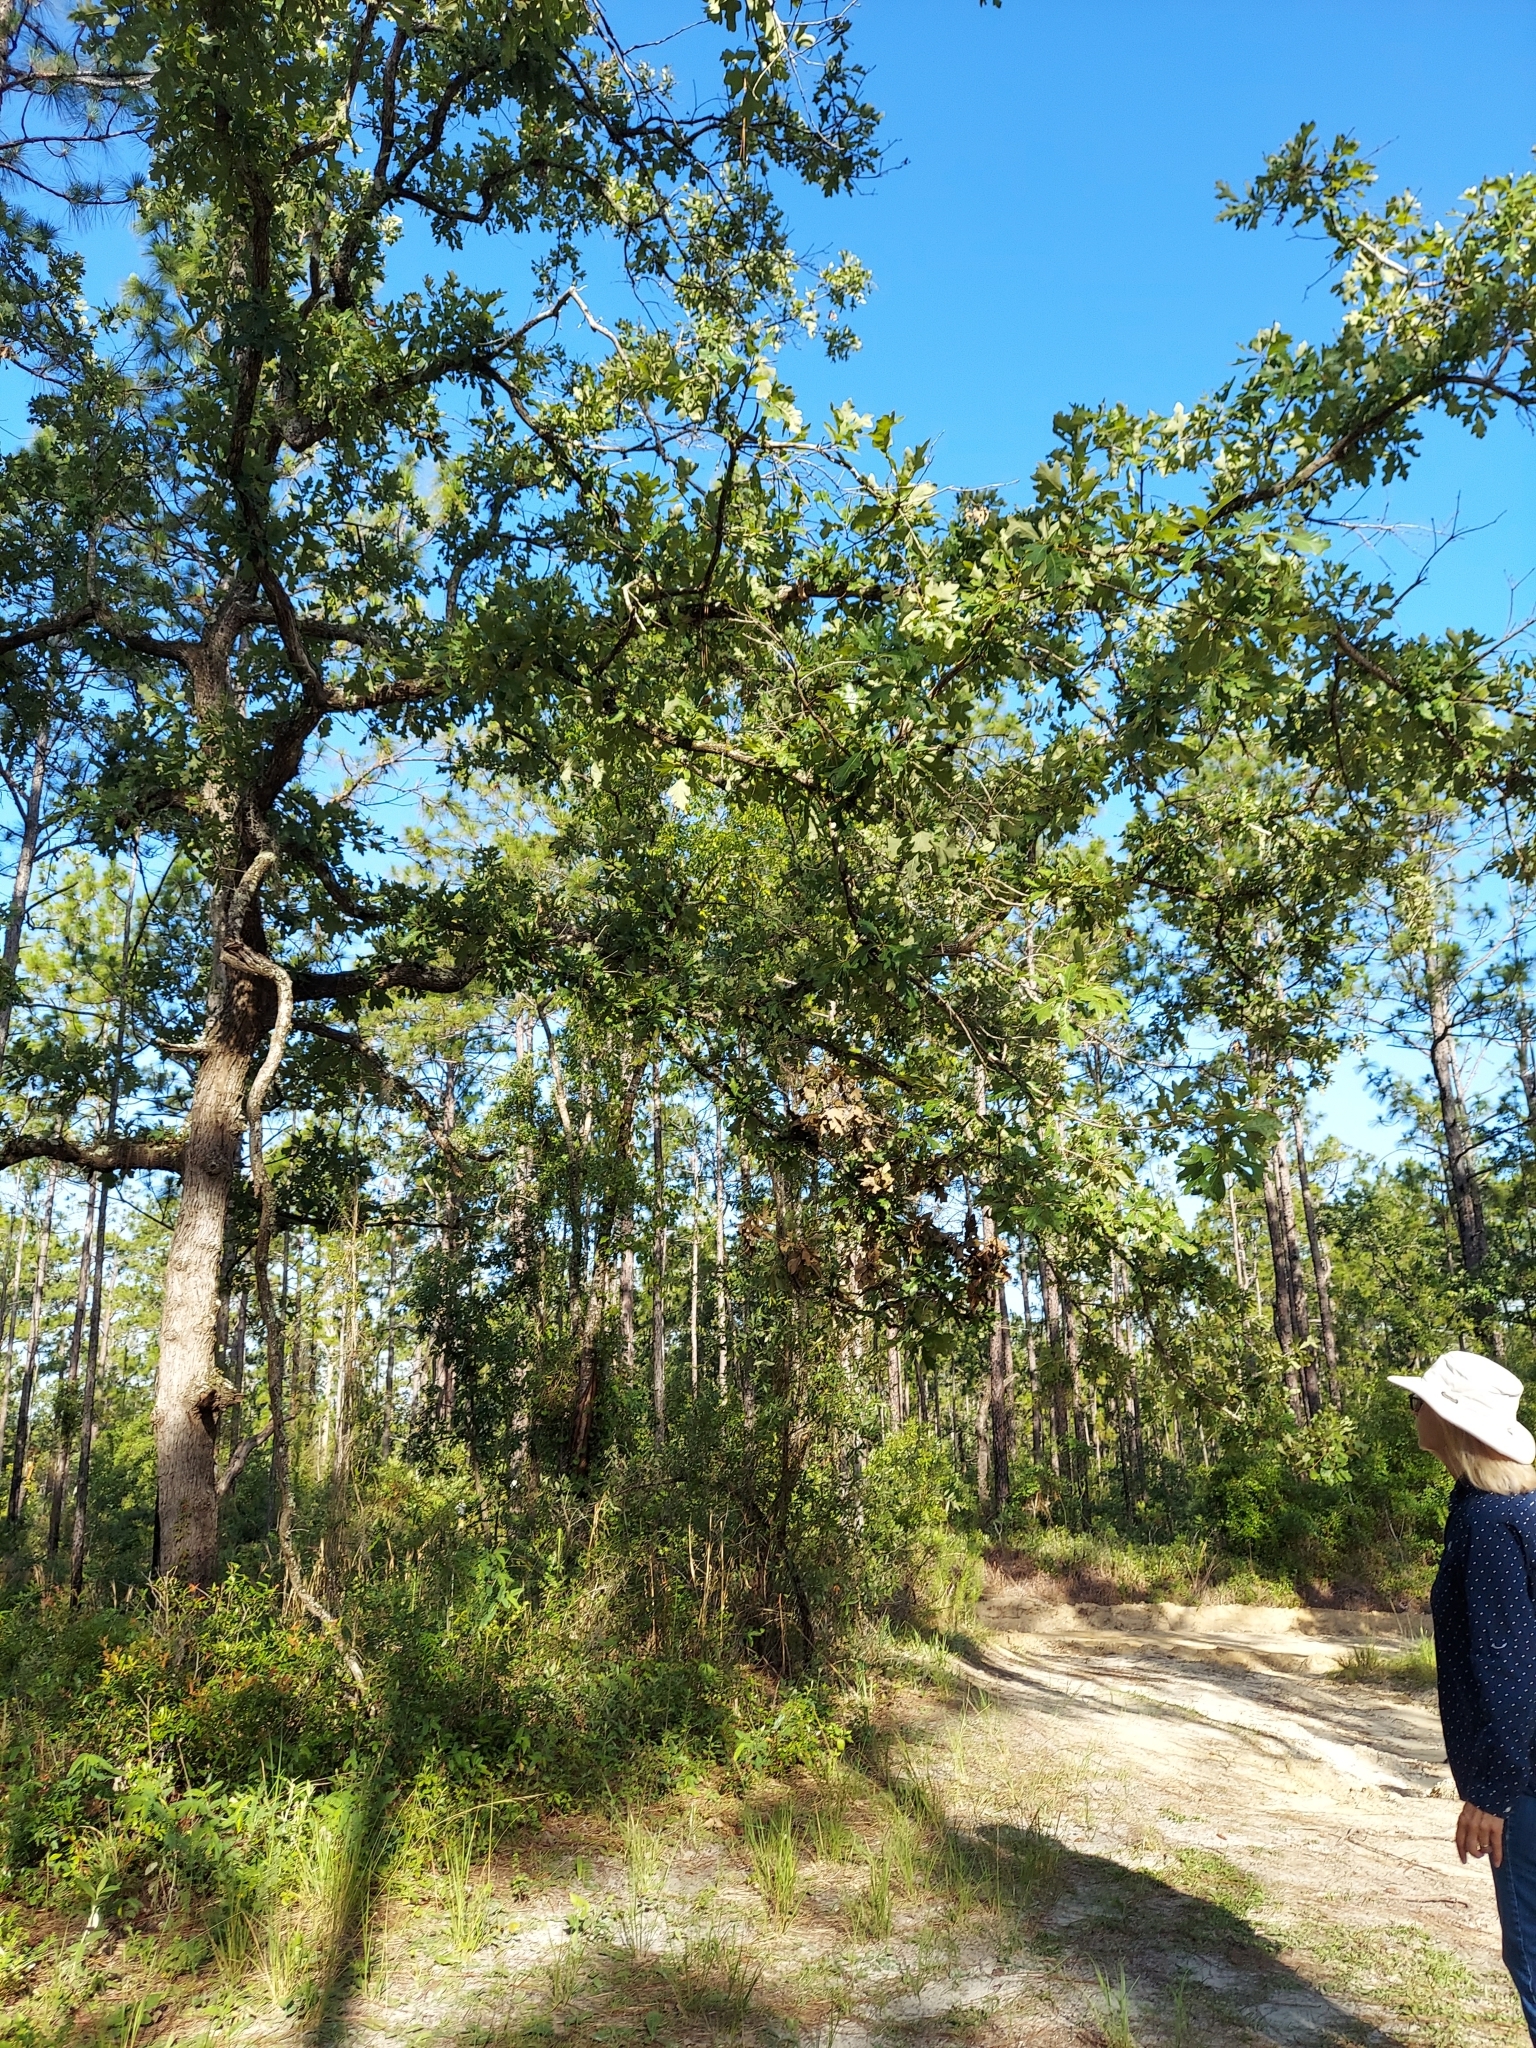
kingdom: Plantae
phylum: Tracheophyta
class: Magnoliopsida
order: Fagales
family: Fagaceae
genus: Quercus
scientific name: Quercus margaretiae
